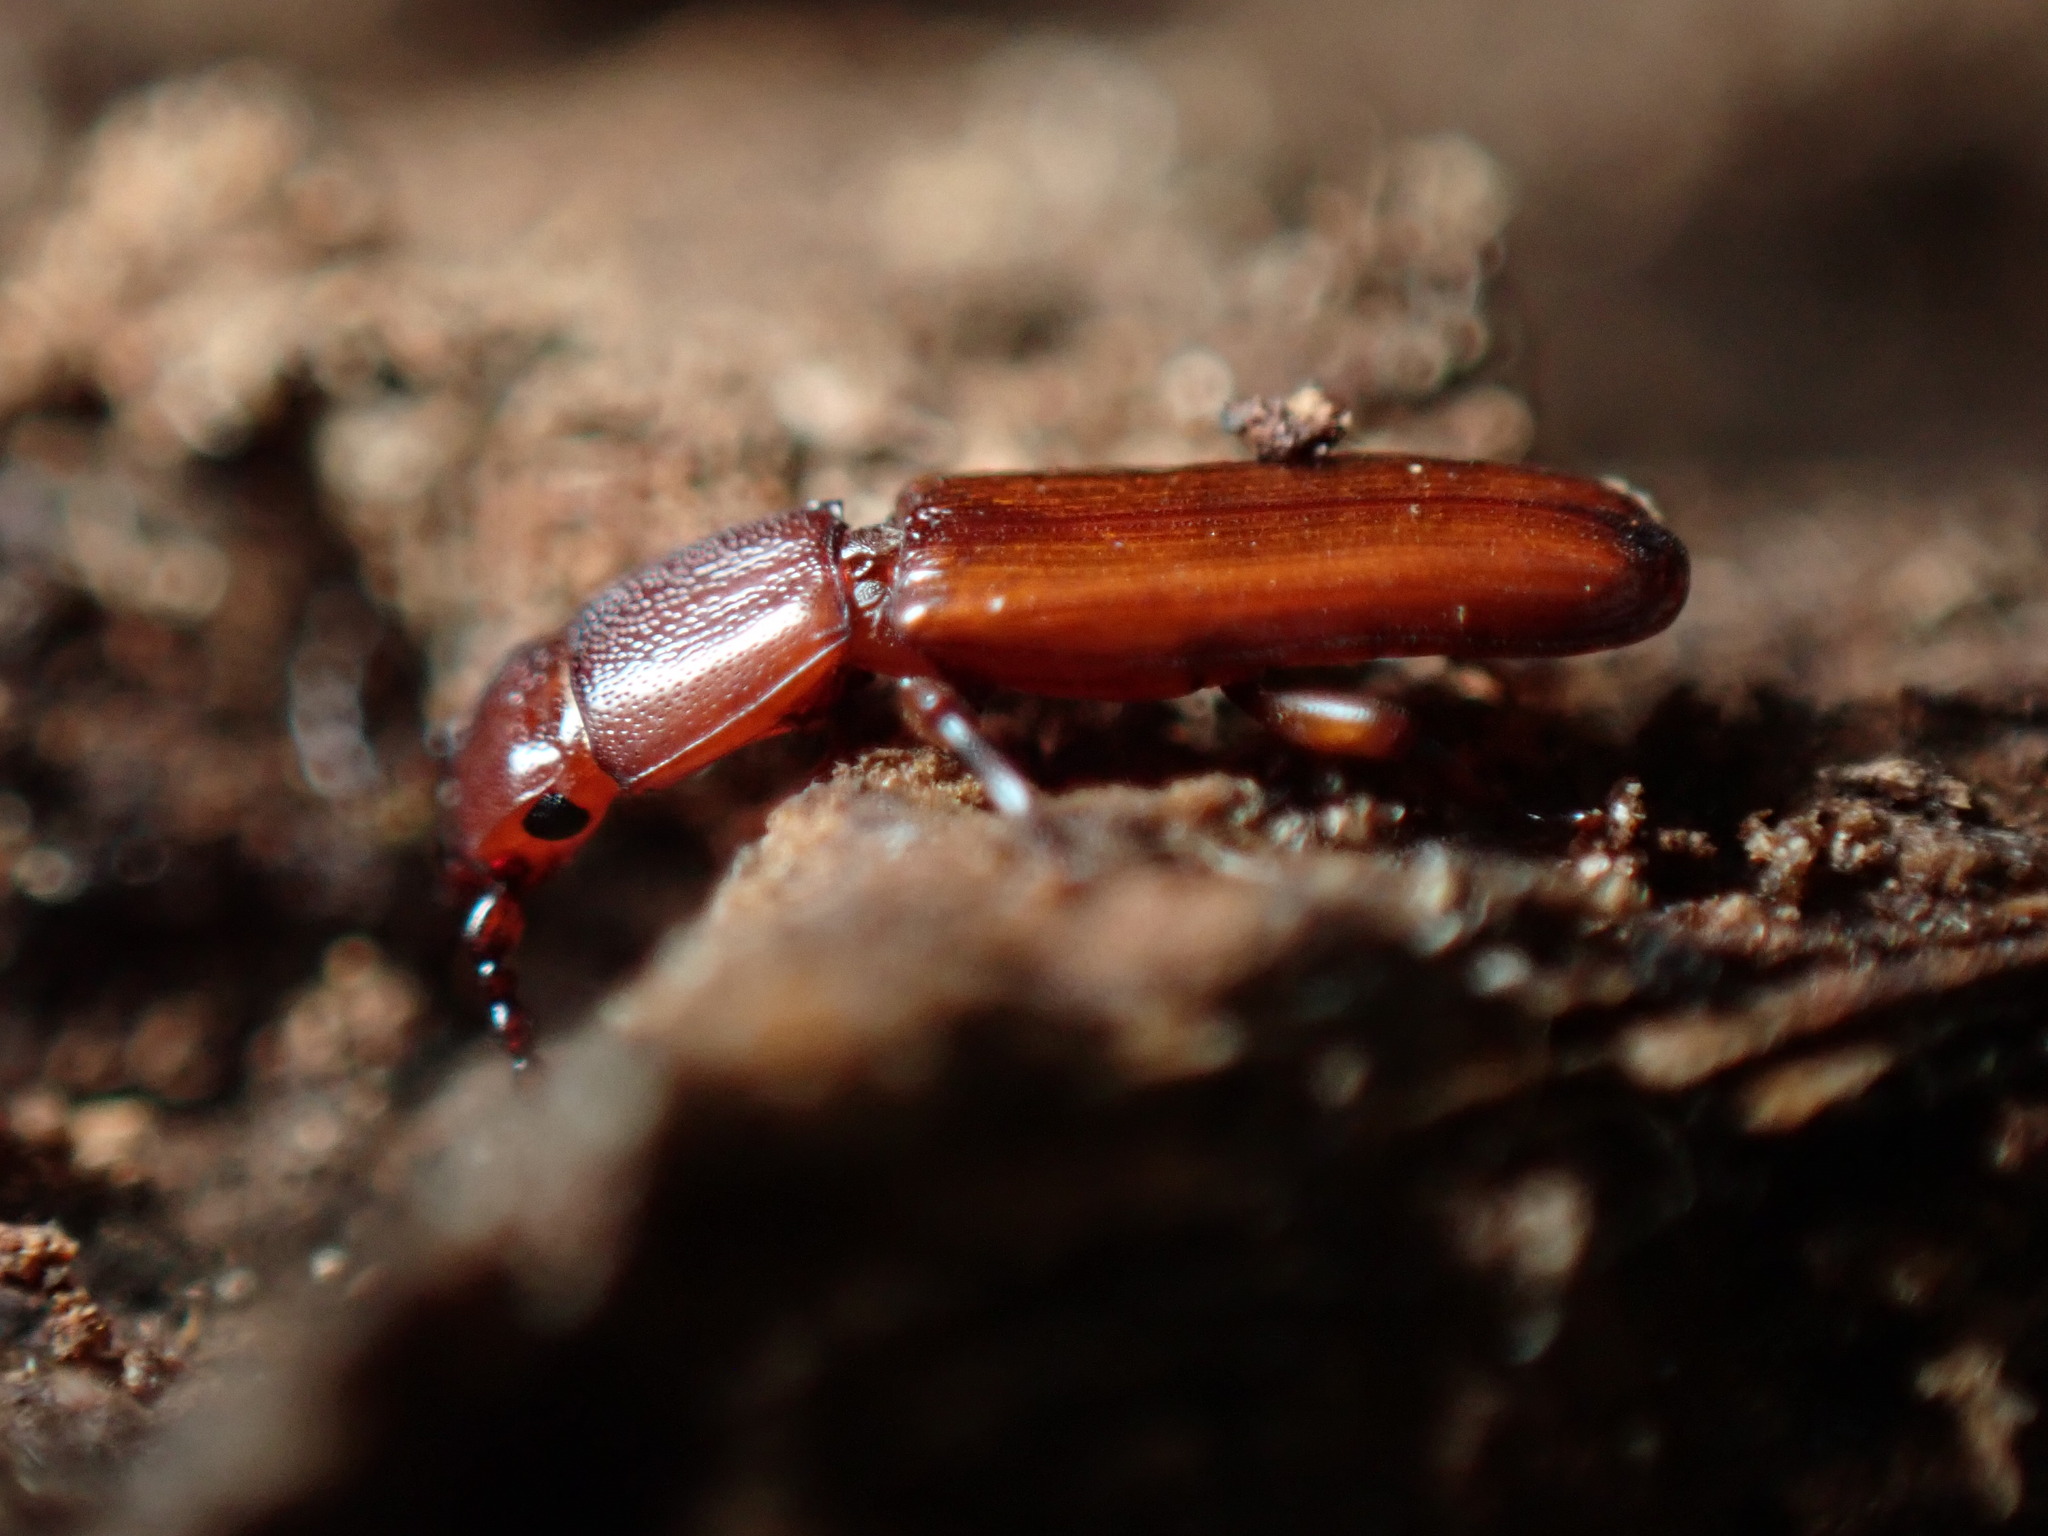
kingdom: Animalia
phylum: Arthropoda
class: Insecta
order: Coleoptera
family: Passandridae
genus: Catogenus
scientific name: Catogenus rufus
